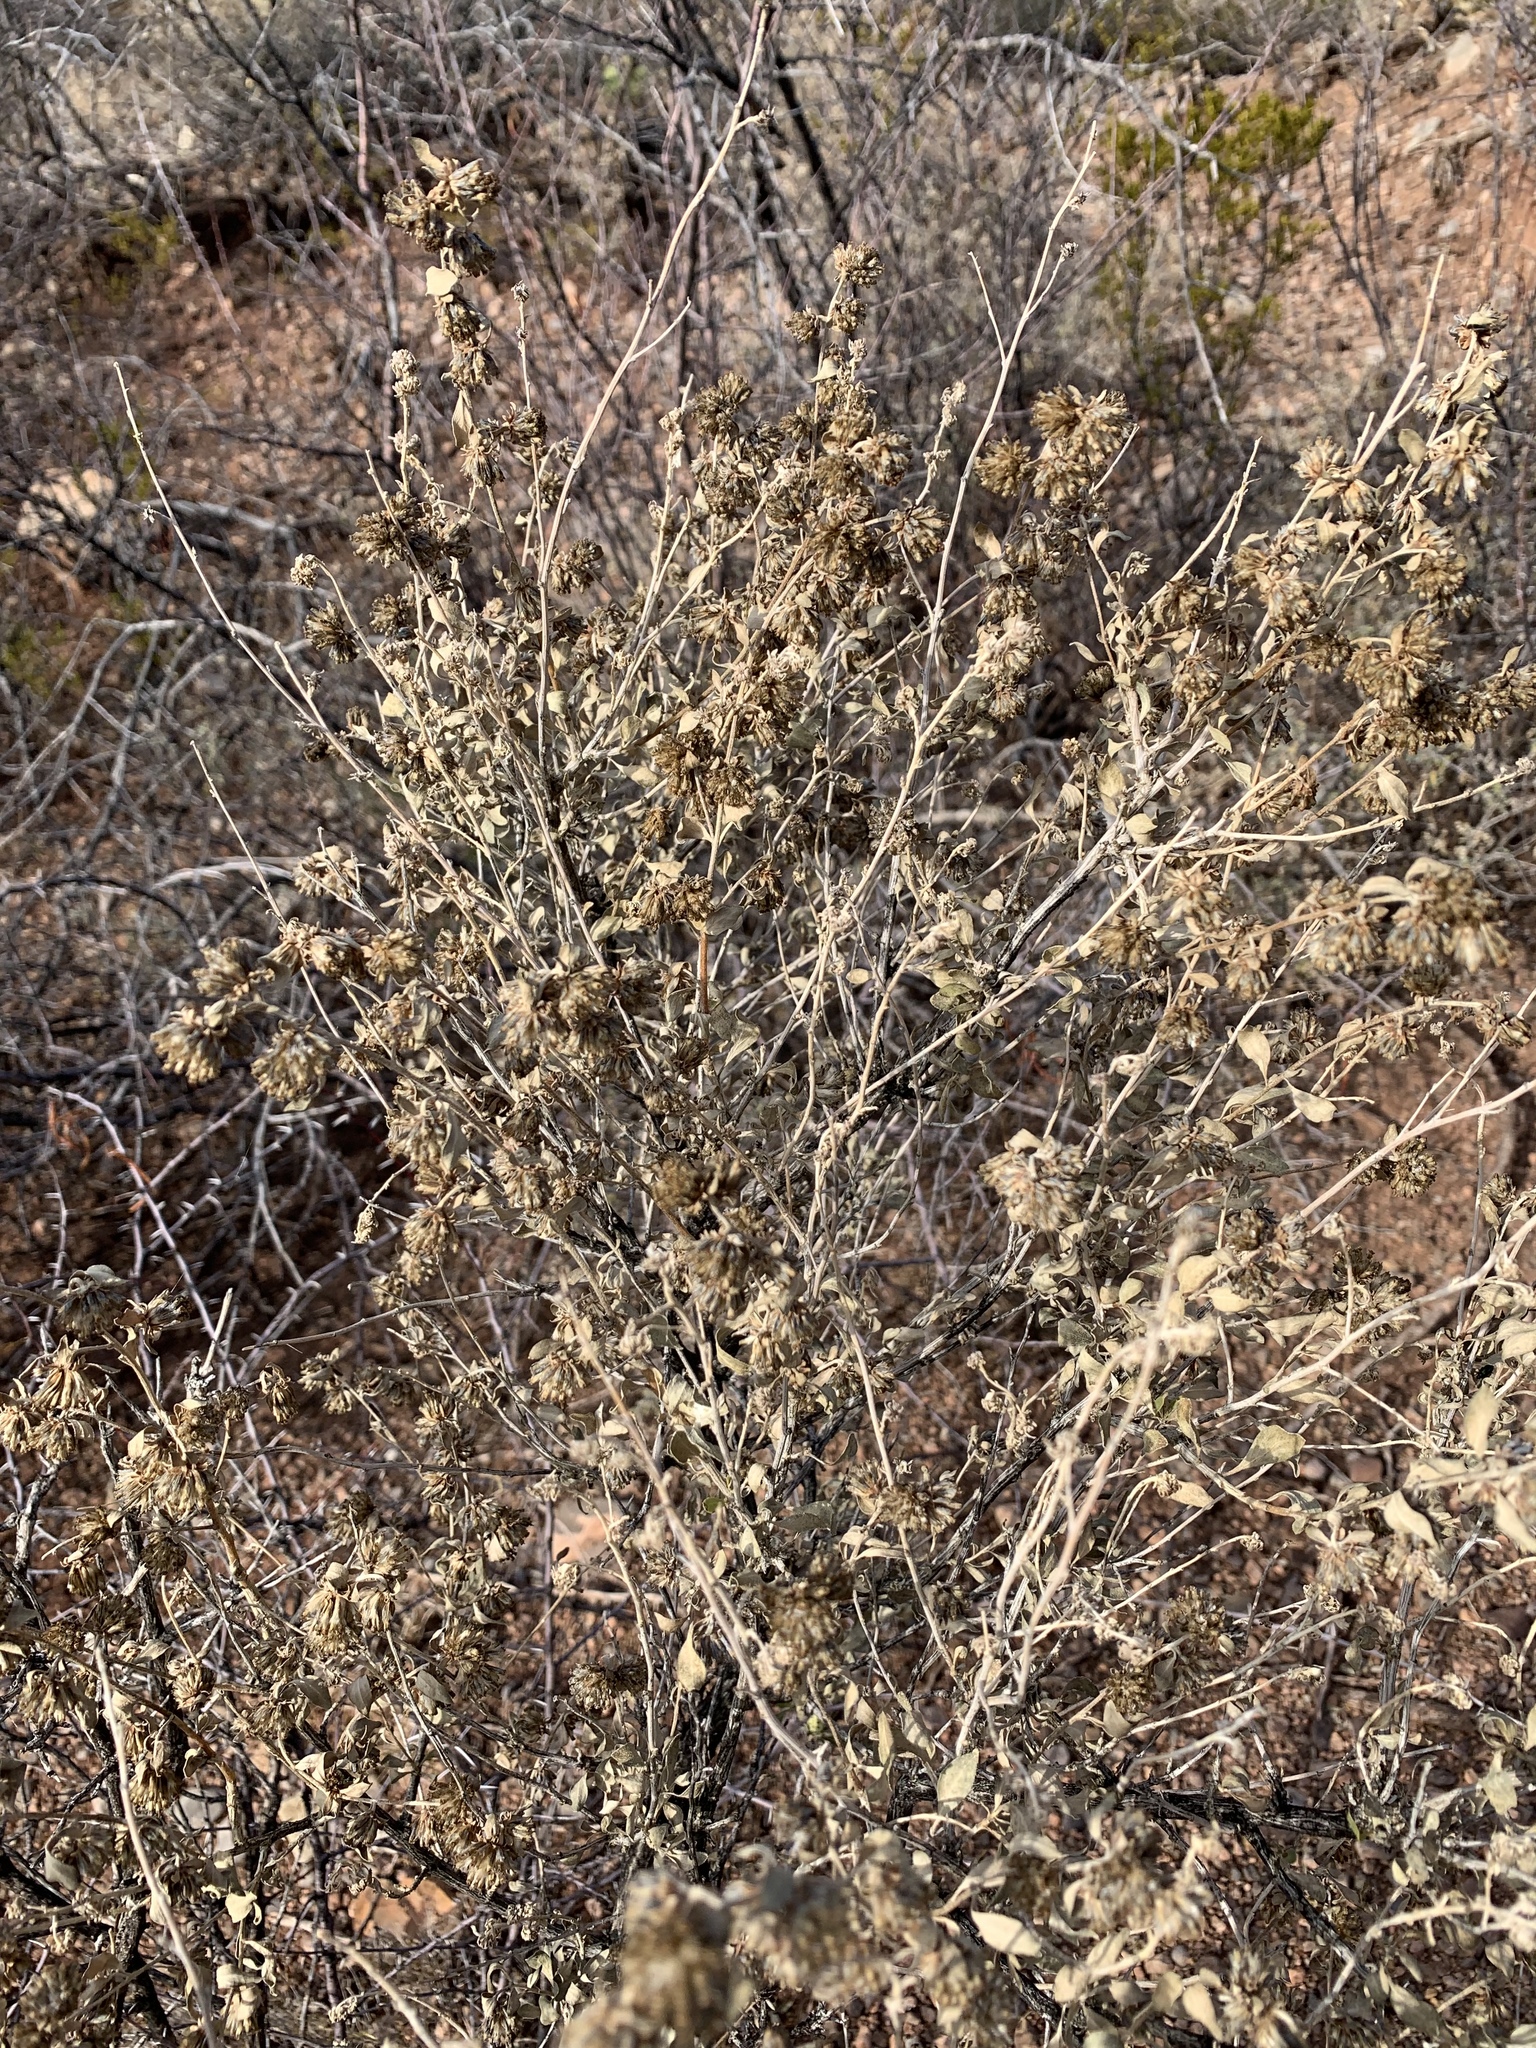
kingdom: Plantae
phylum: Tracheophyta
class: Magnoliopsida
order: Asterales
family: Asteraceae
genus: Parthenium
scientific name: Parthenium incanum
